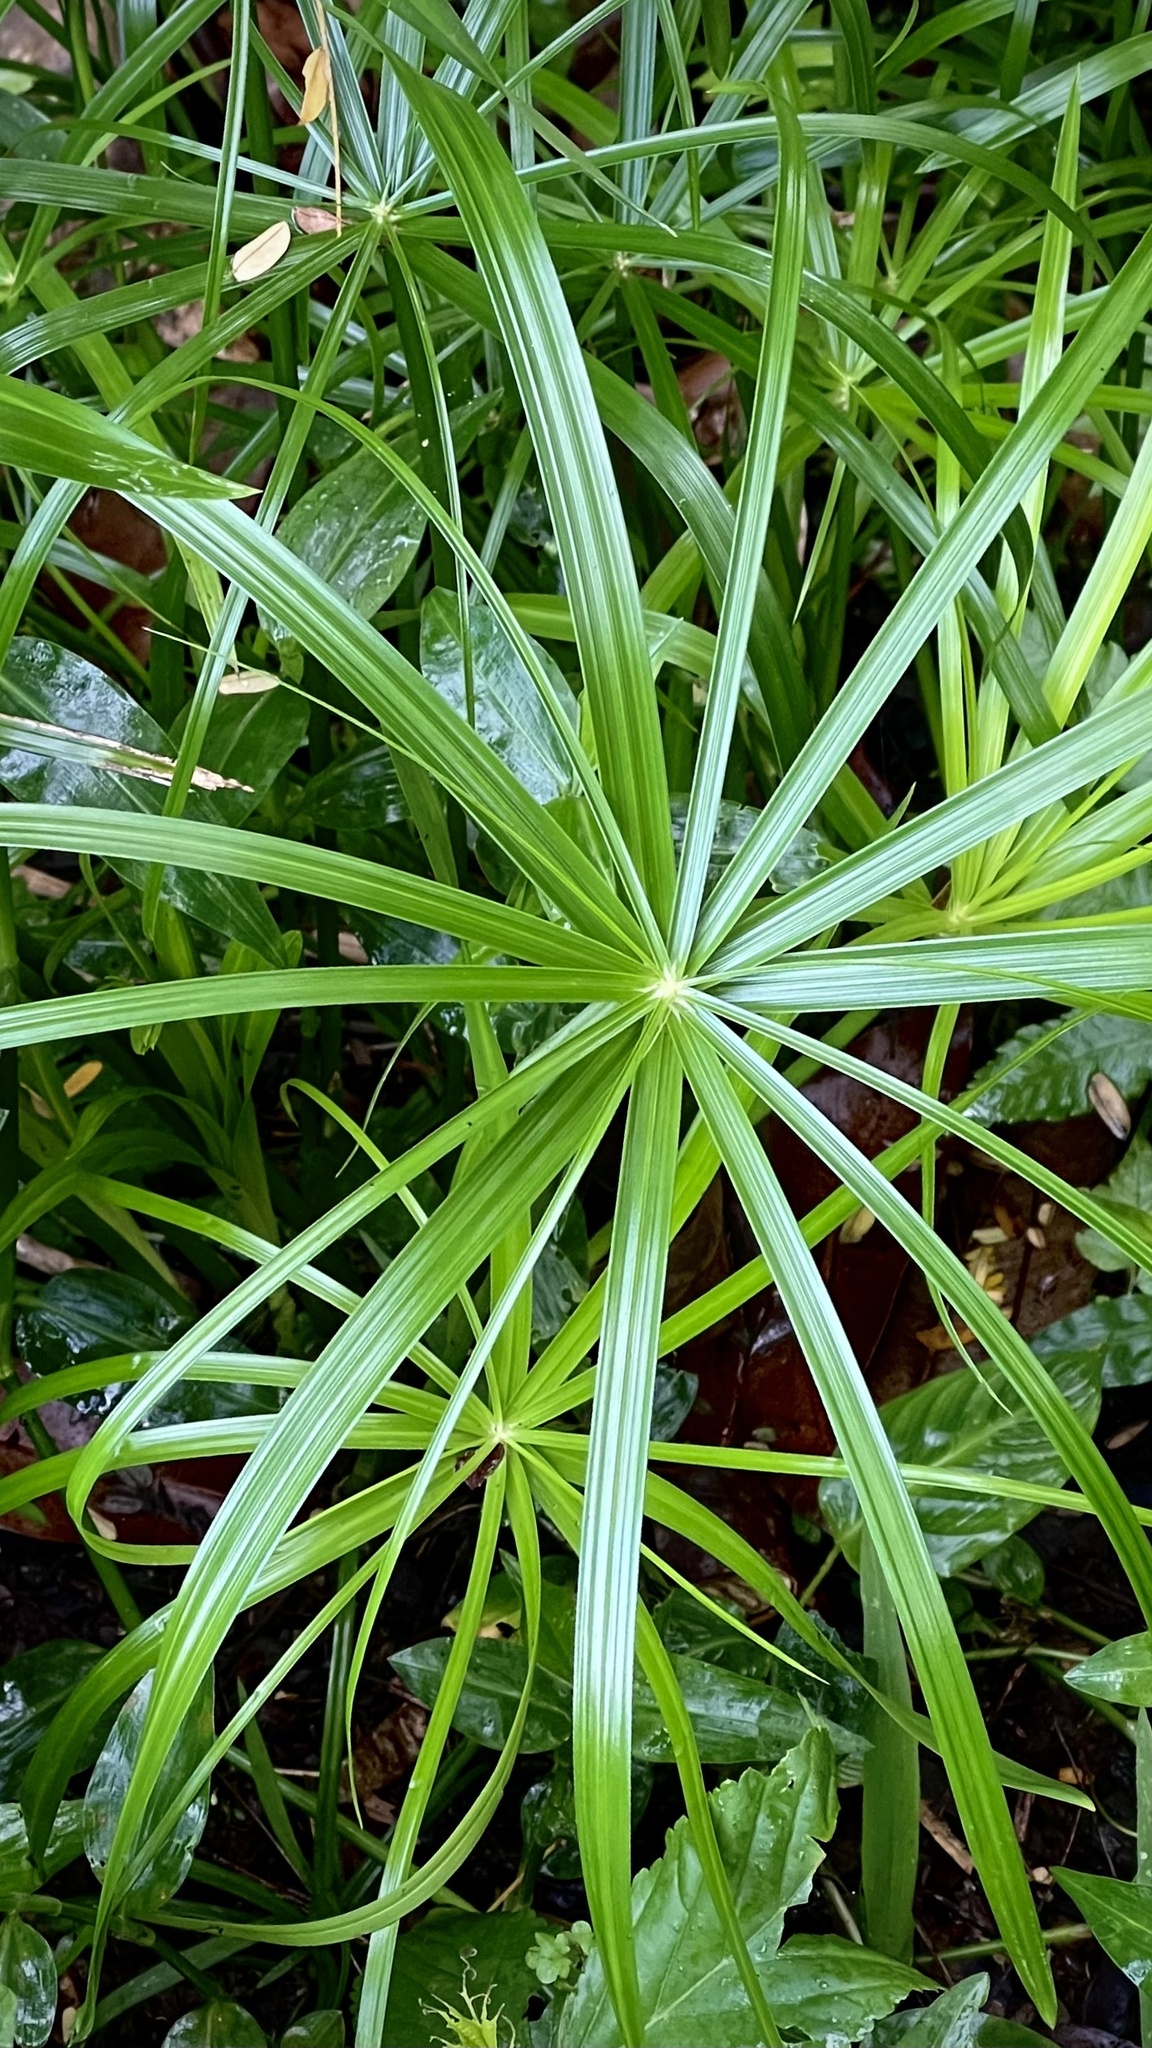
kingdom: Plantae
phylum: Tracheophyta
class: Liliopsida
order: Poales
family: Cyperaceae
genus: Cyperus
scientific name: Cyperus alternifolius
